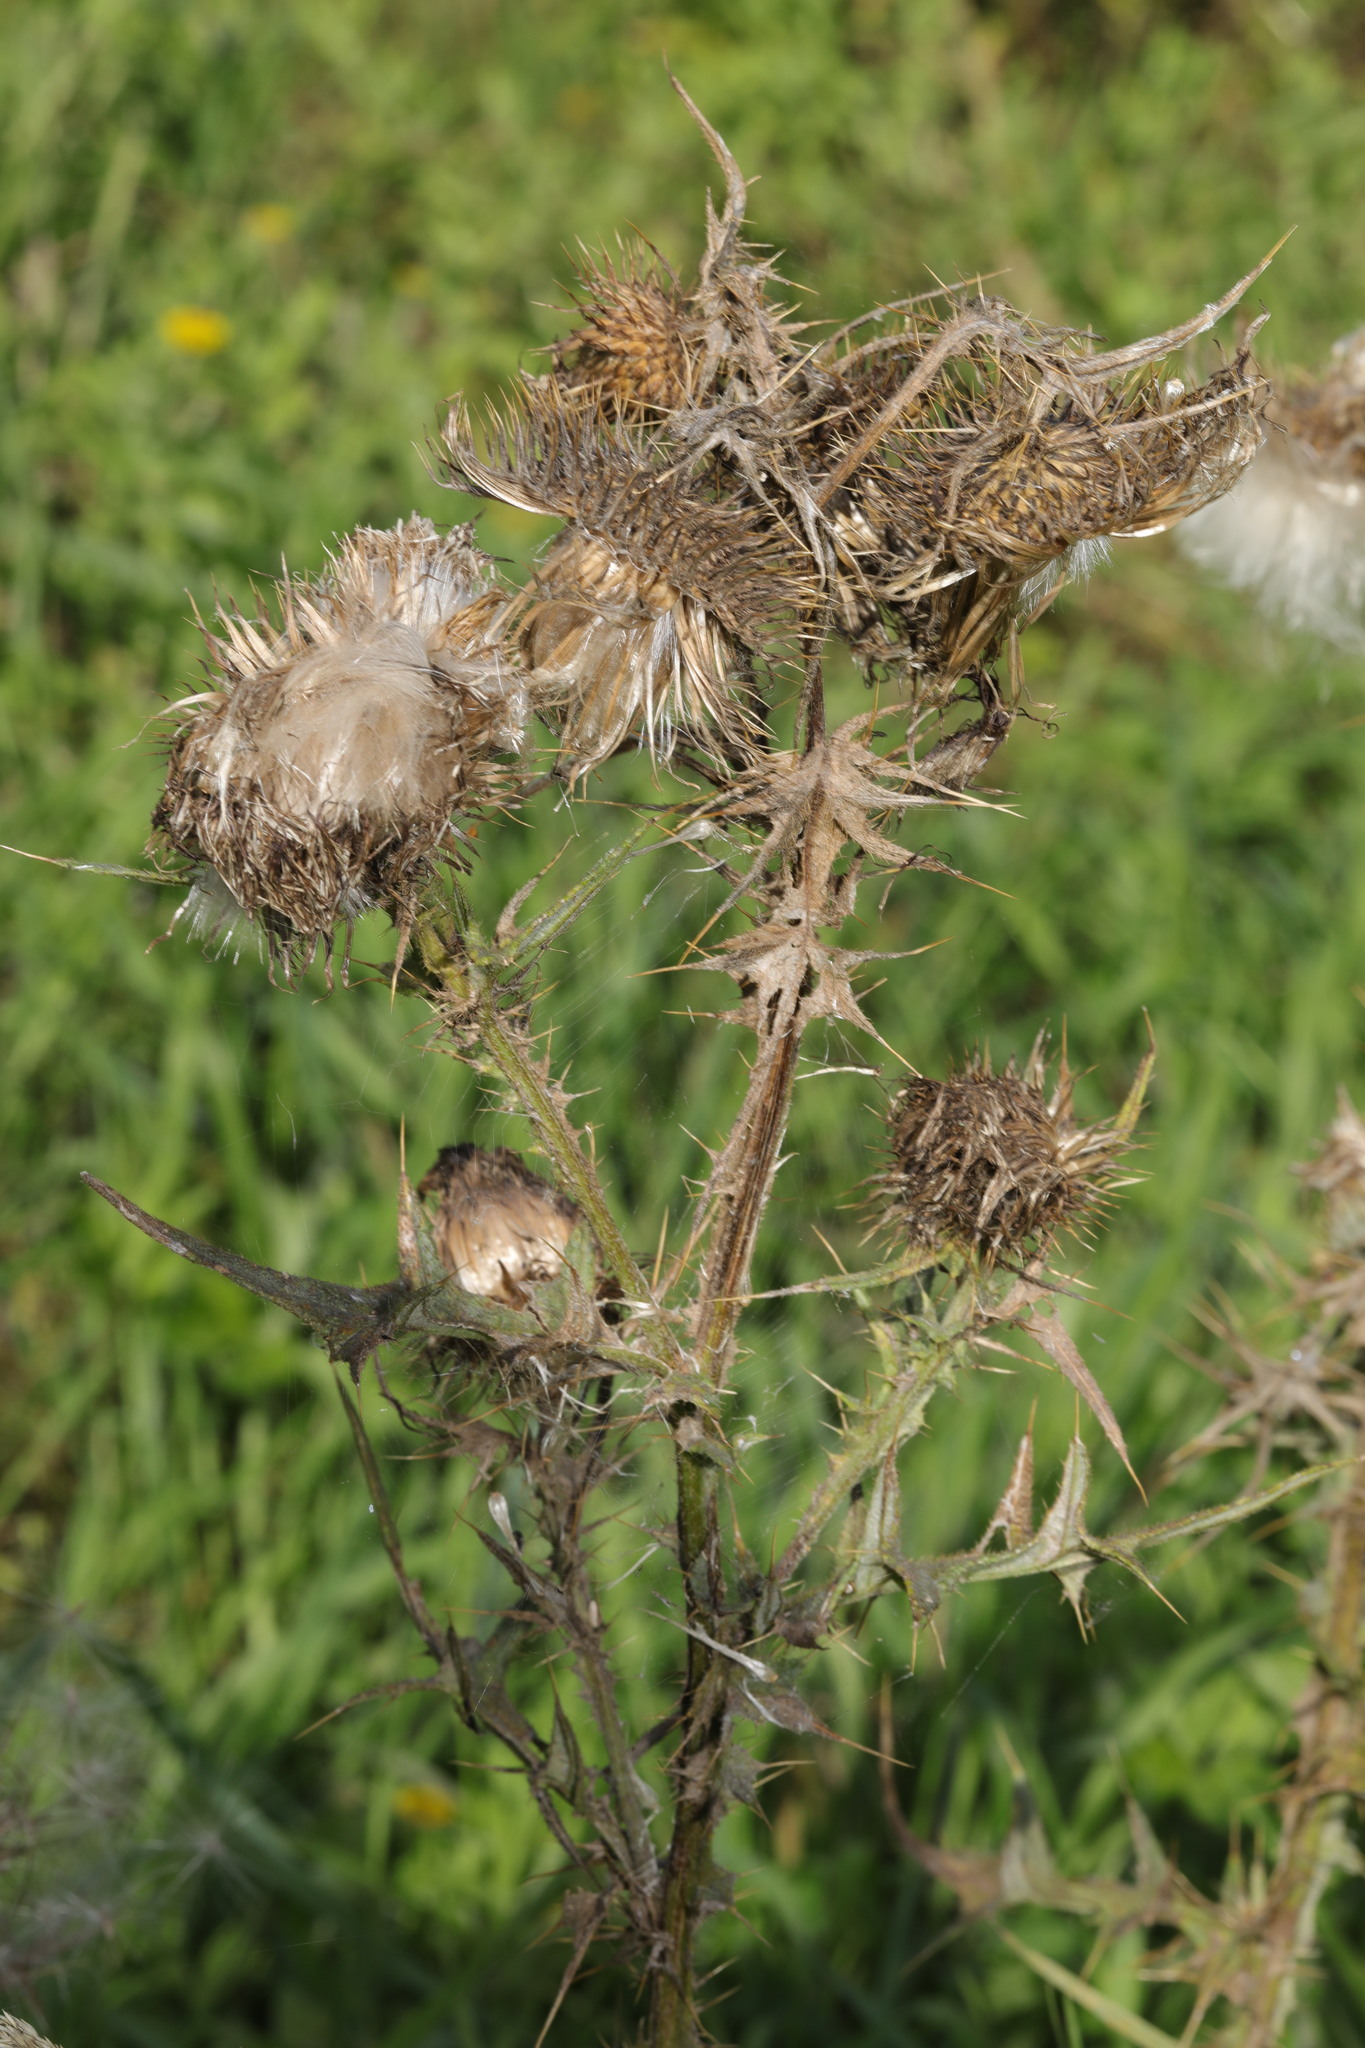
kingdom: Plantae
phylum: Tracheophyta
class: Magnoliopsida
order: Asterales
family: Asteraceae
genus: Cirsium
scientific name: Cirsium vulgare
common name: Bull thistle
